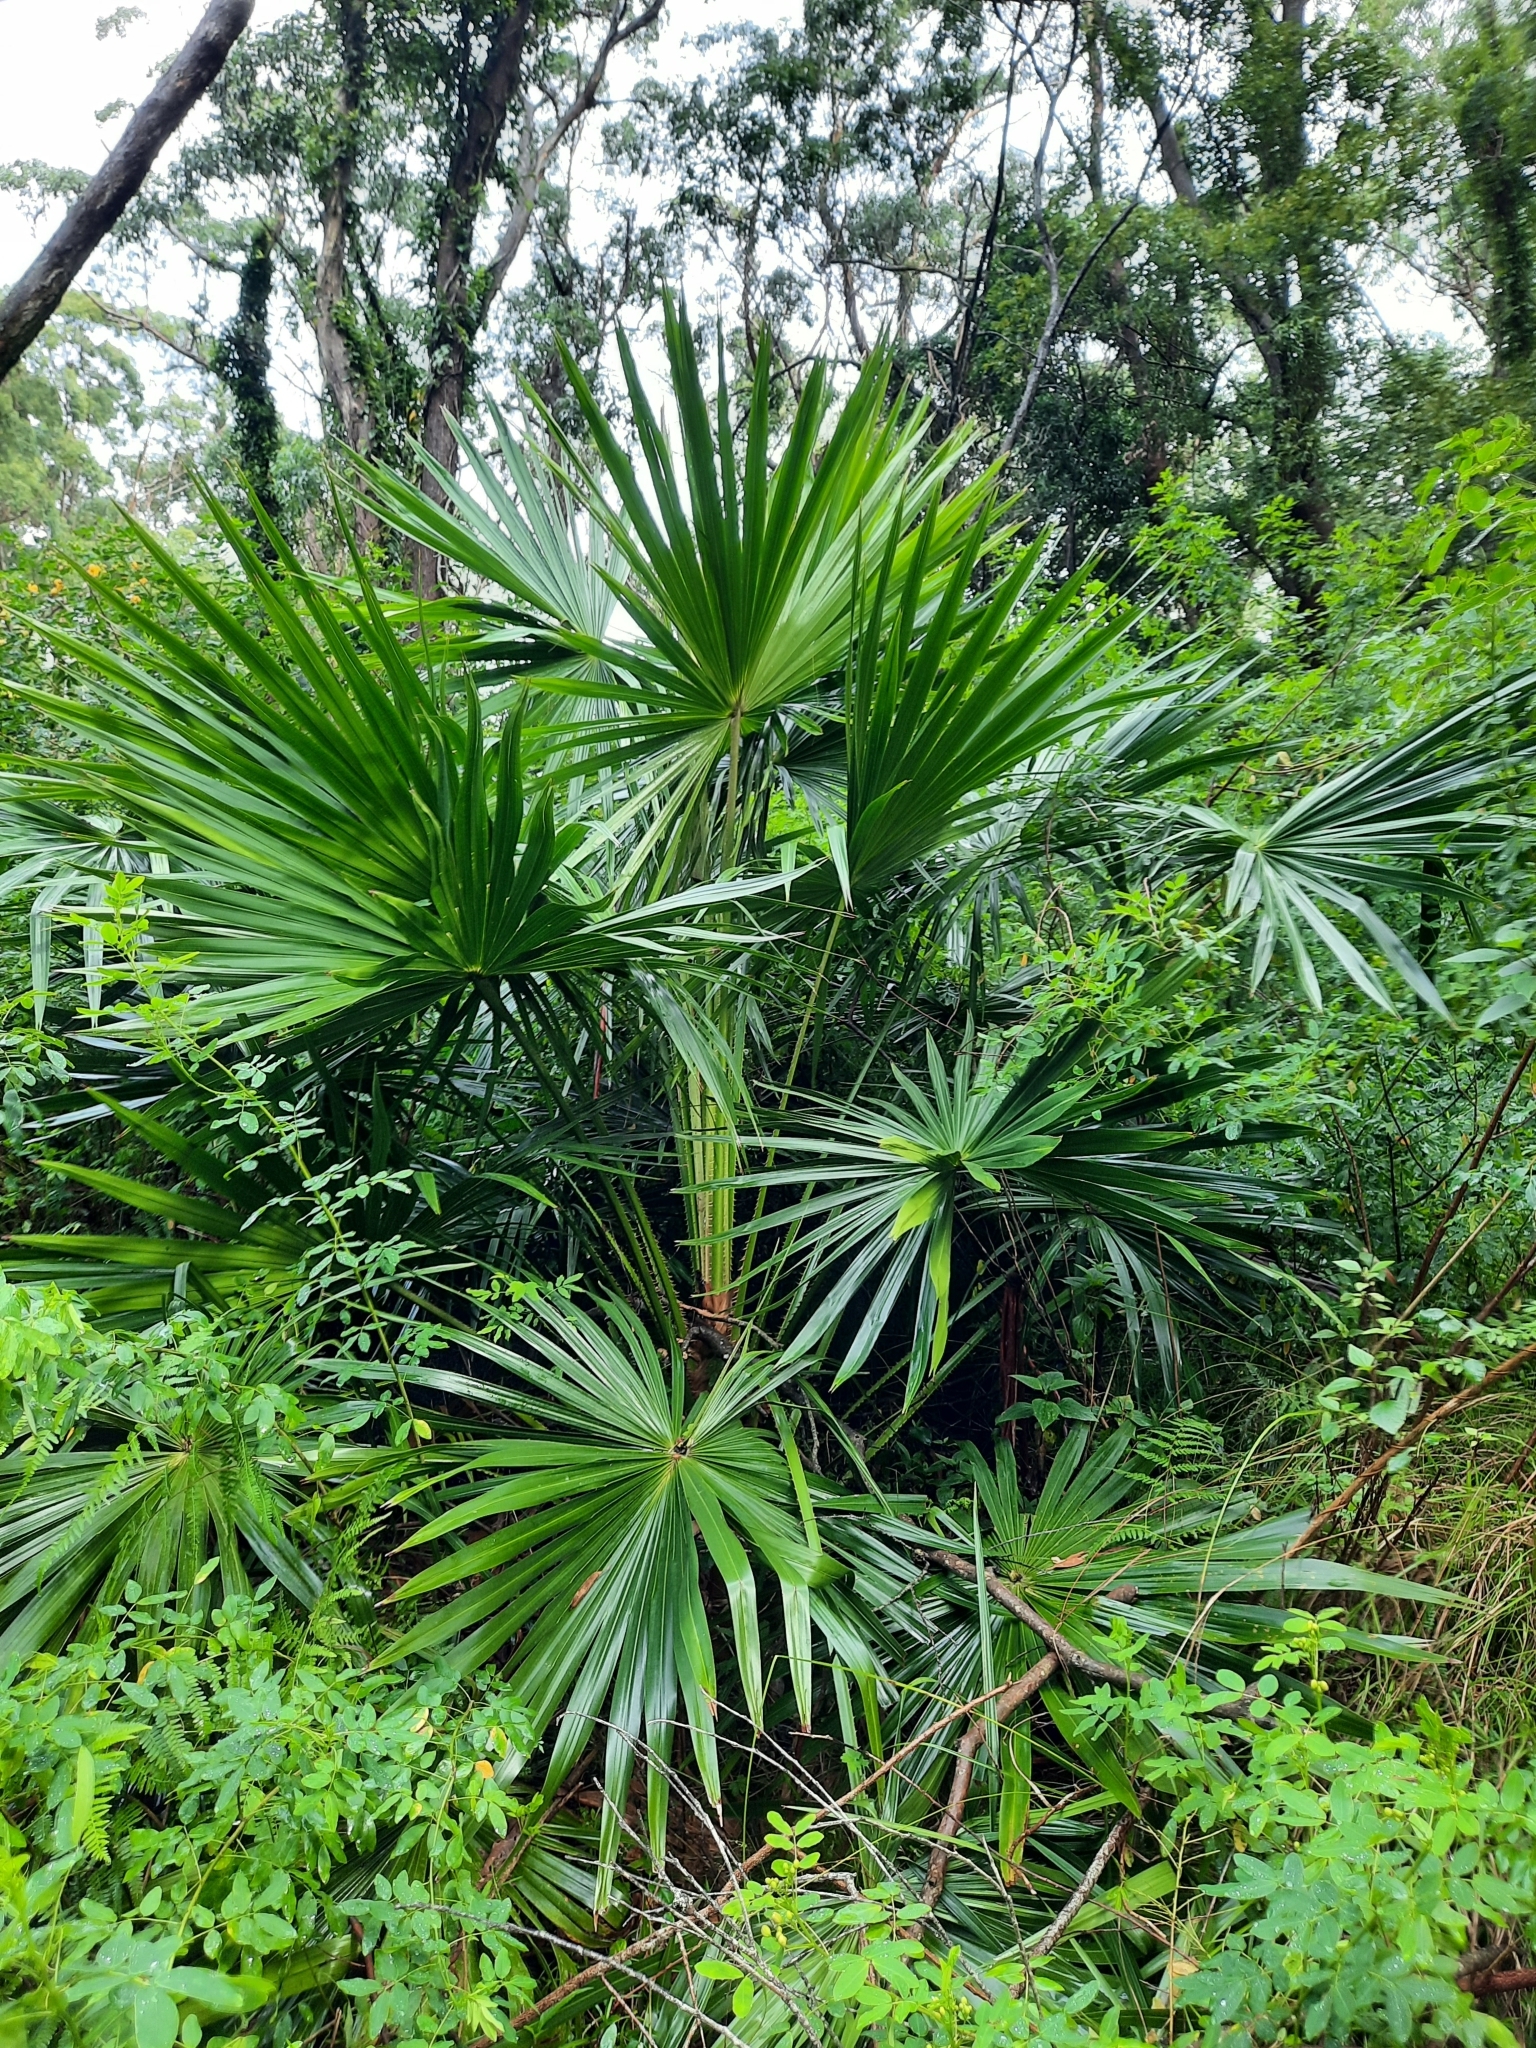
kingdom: Plantae
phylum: Tracheophyta
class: Liliopsida
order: Arecales
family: Arecaceae
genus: Livistona
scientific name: Livistona australis
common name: Cabbage fan palm
